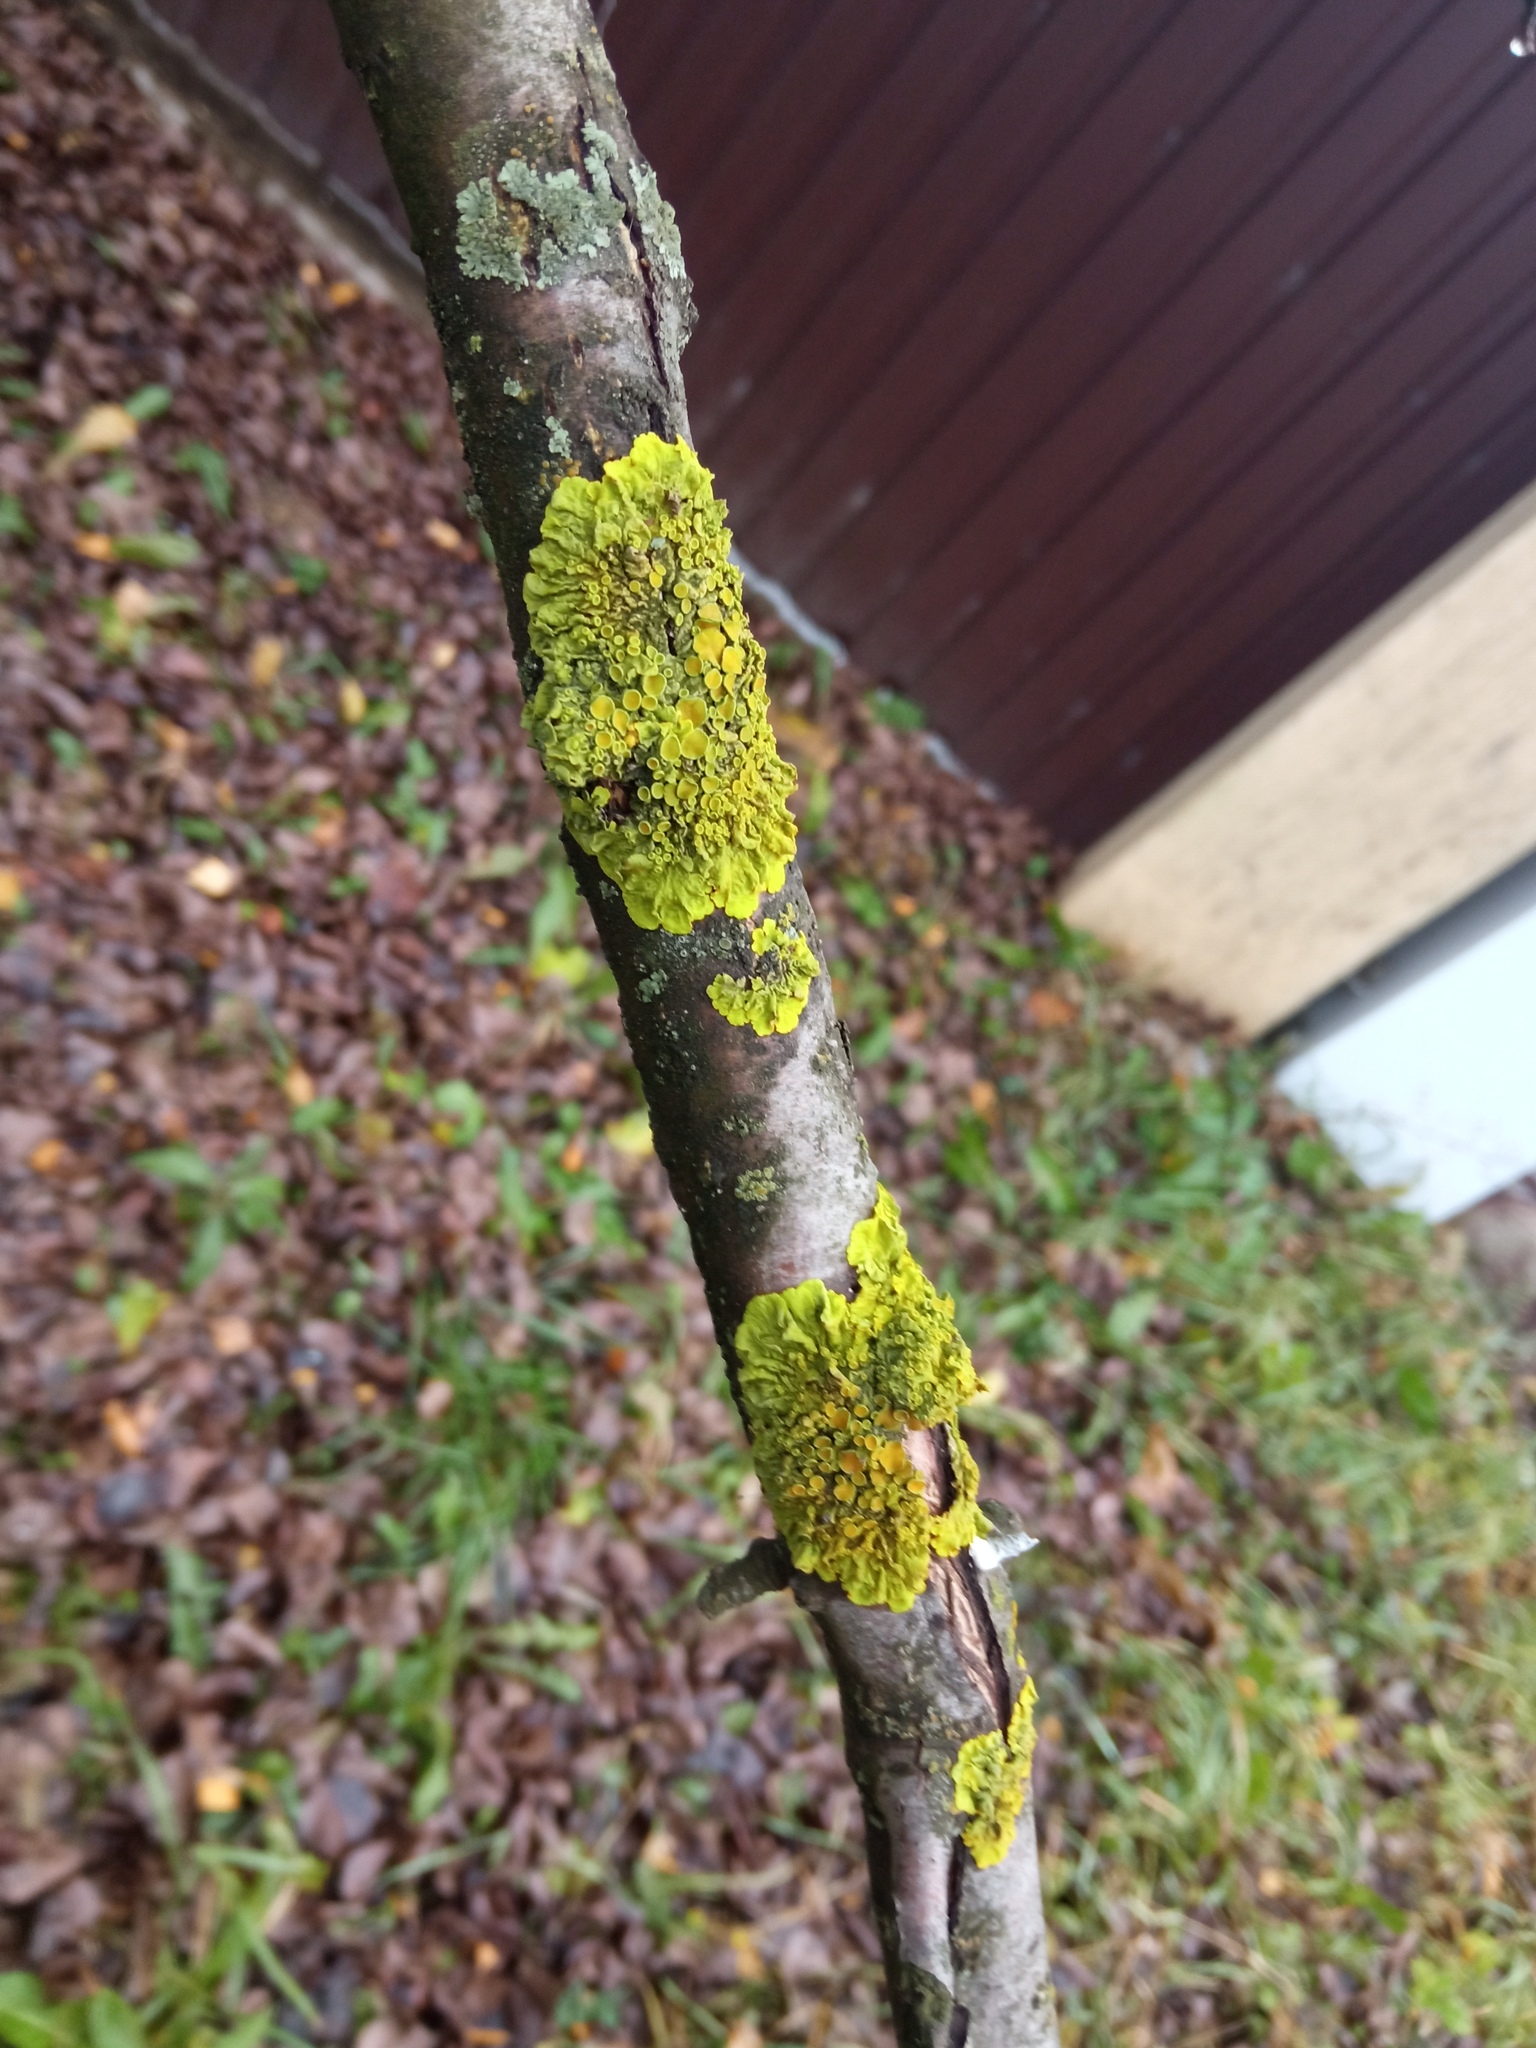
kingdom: Fungi
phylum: Ascomycota
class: Lecanoromycetes
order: Teloschistales
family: Teloschistaceae
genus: Xanthoria
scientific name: Xanthoria parietina
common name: Common orange lichen
